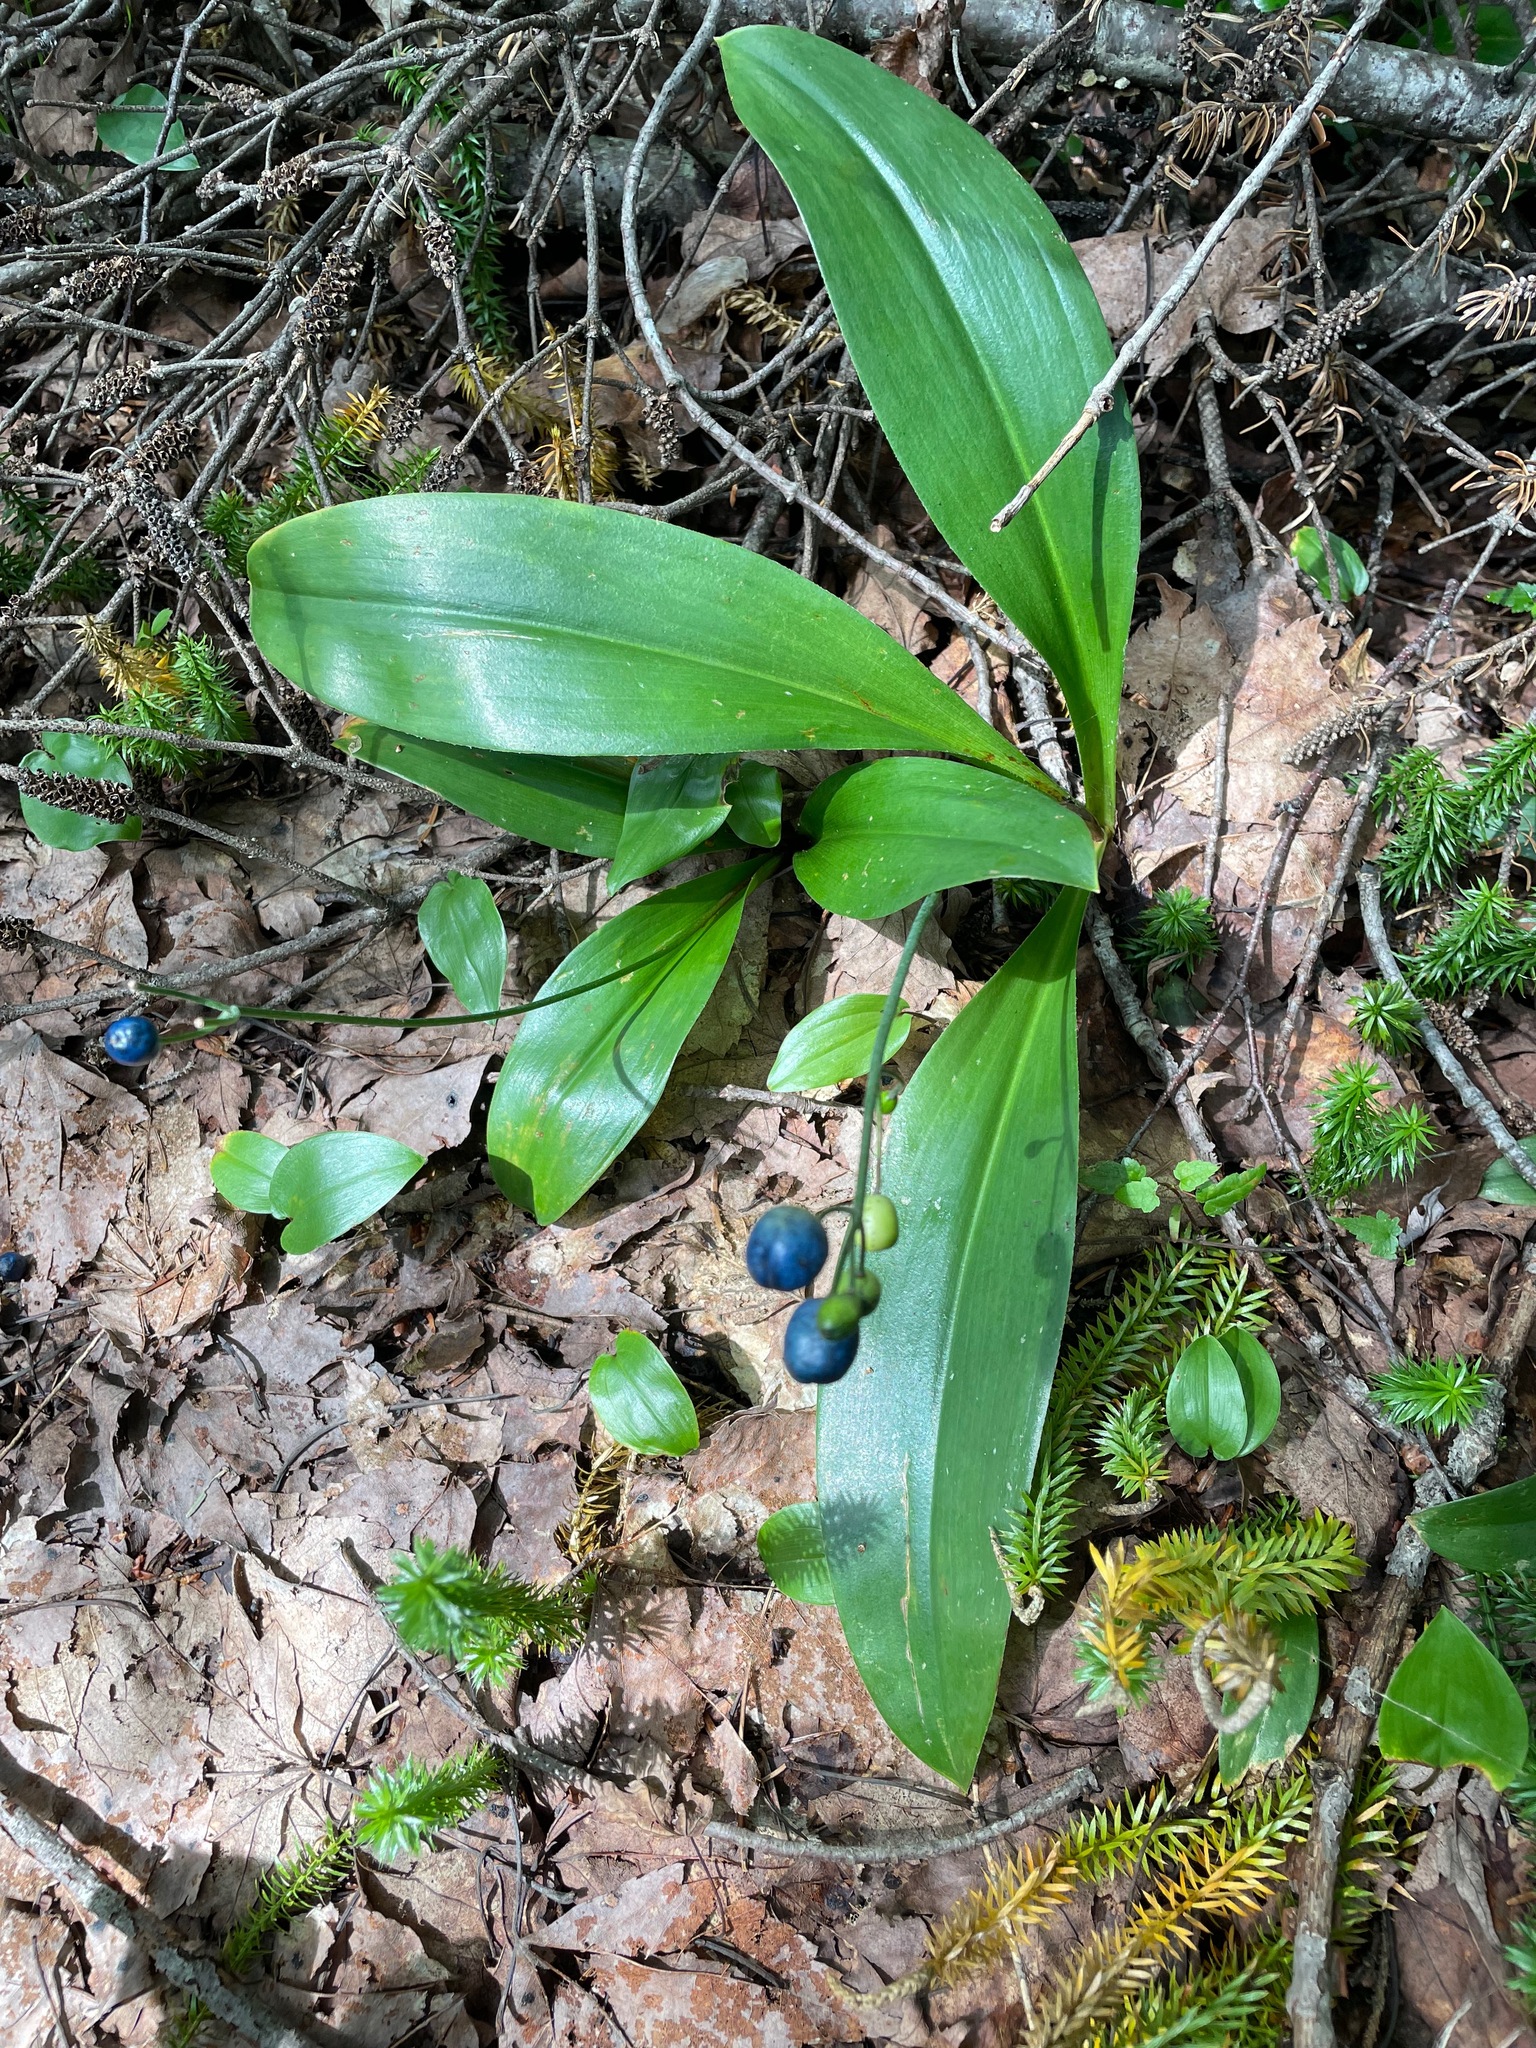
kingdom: Plantae
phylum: Tracheophyta
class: Liliopsida
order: Liliales
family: Liliaceae
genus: Clintonia
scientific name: Clintonia borealis
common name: Yellow clintonia
